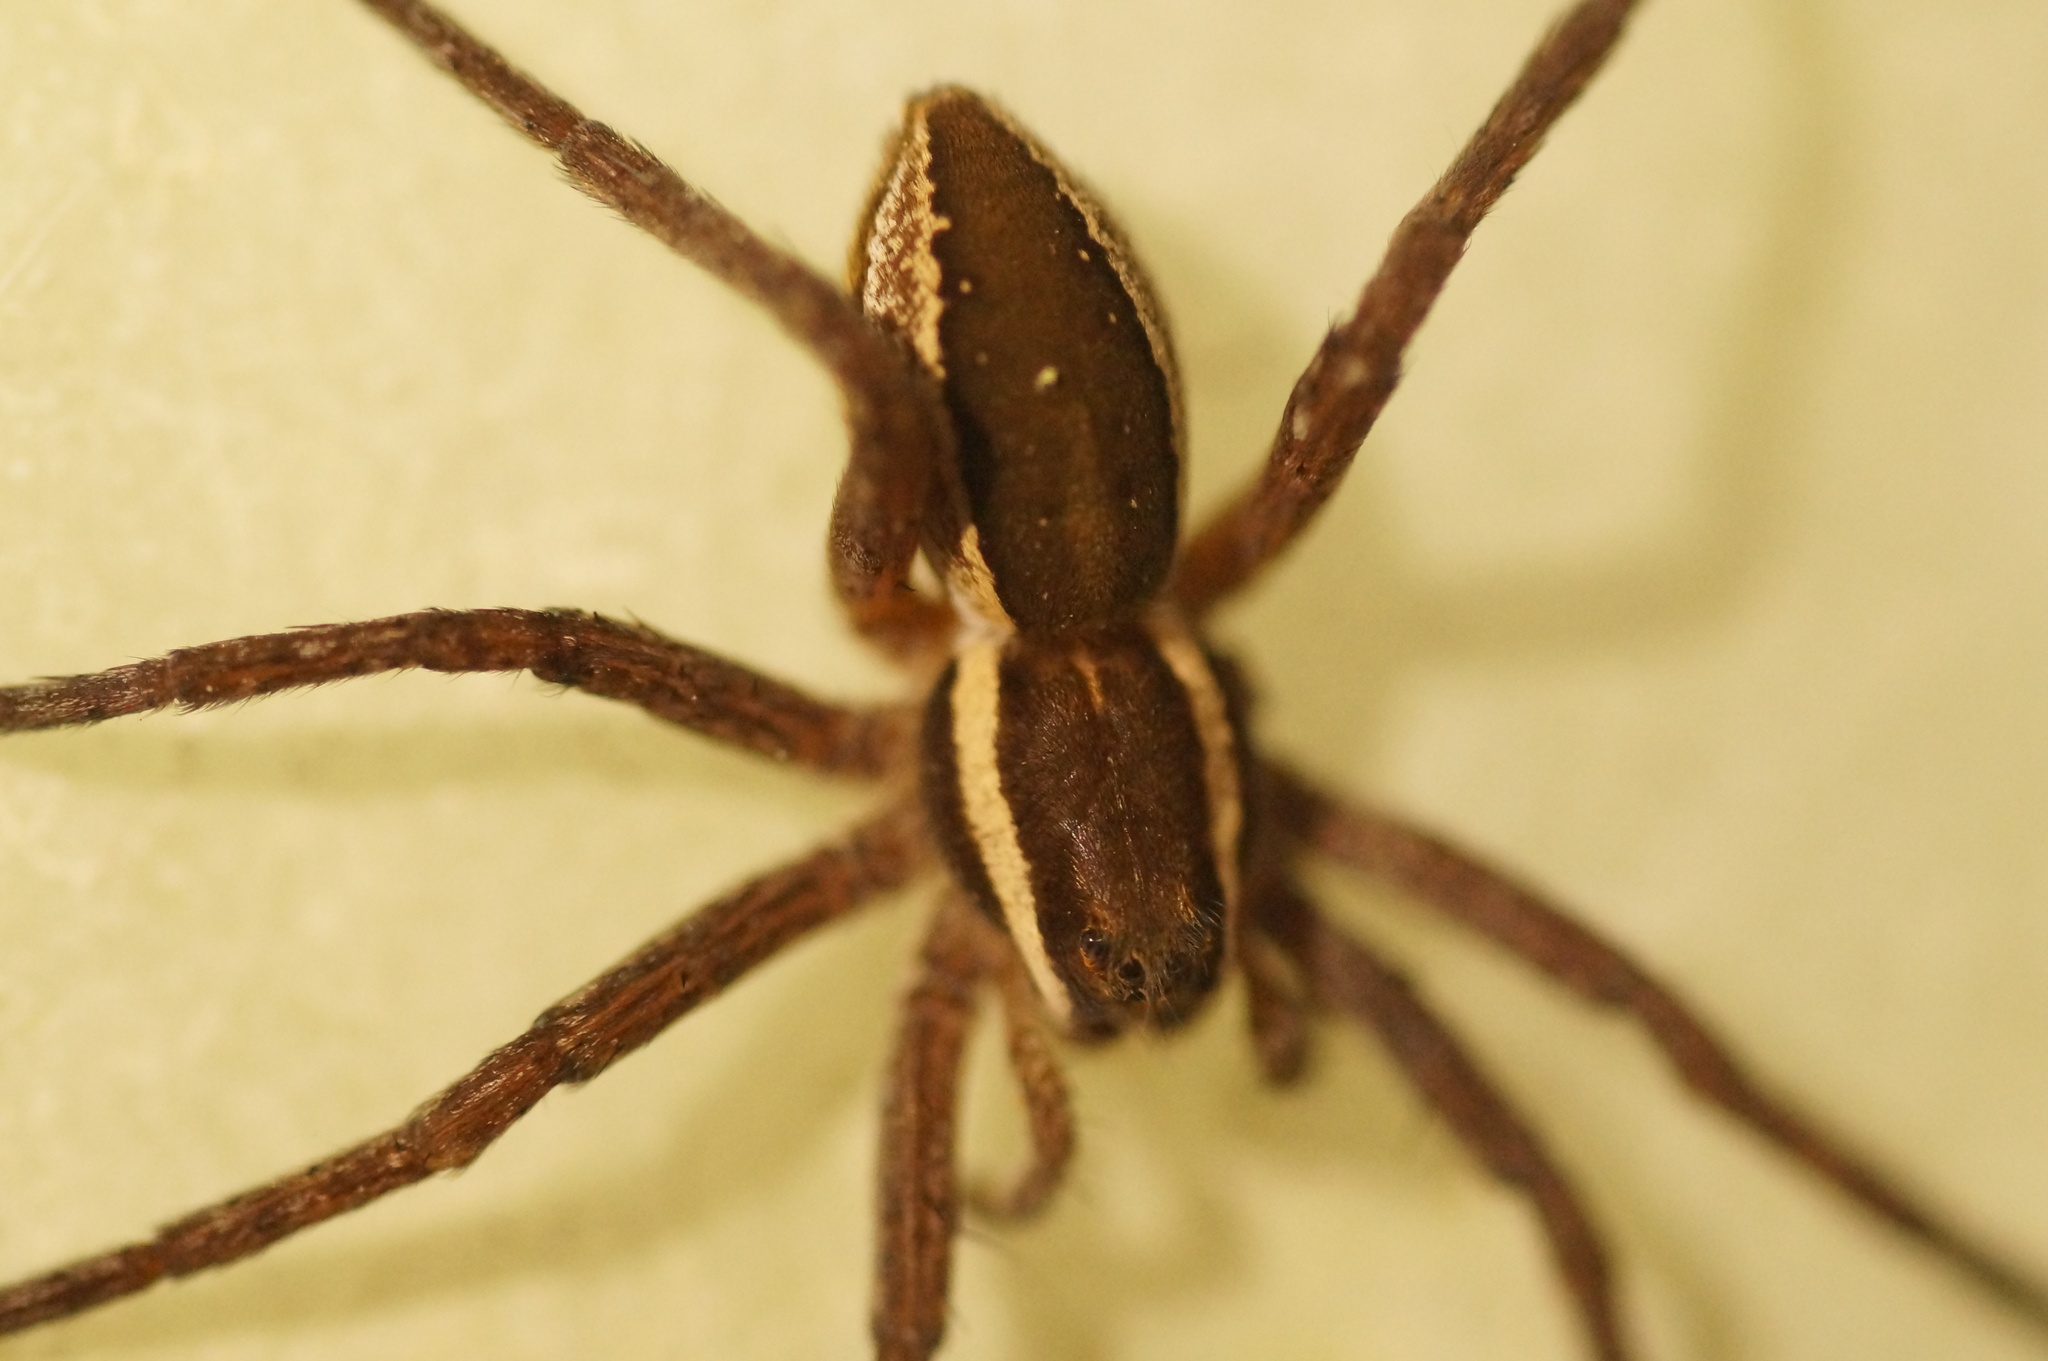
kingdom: Animalia
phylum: Arthropoda
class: Arachnida
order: Araneae
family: Pisauridae
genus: Dolomedes
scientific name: Dolomedes
